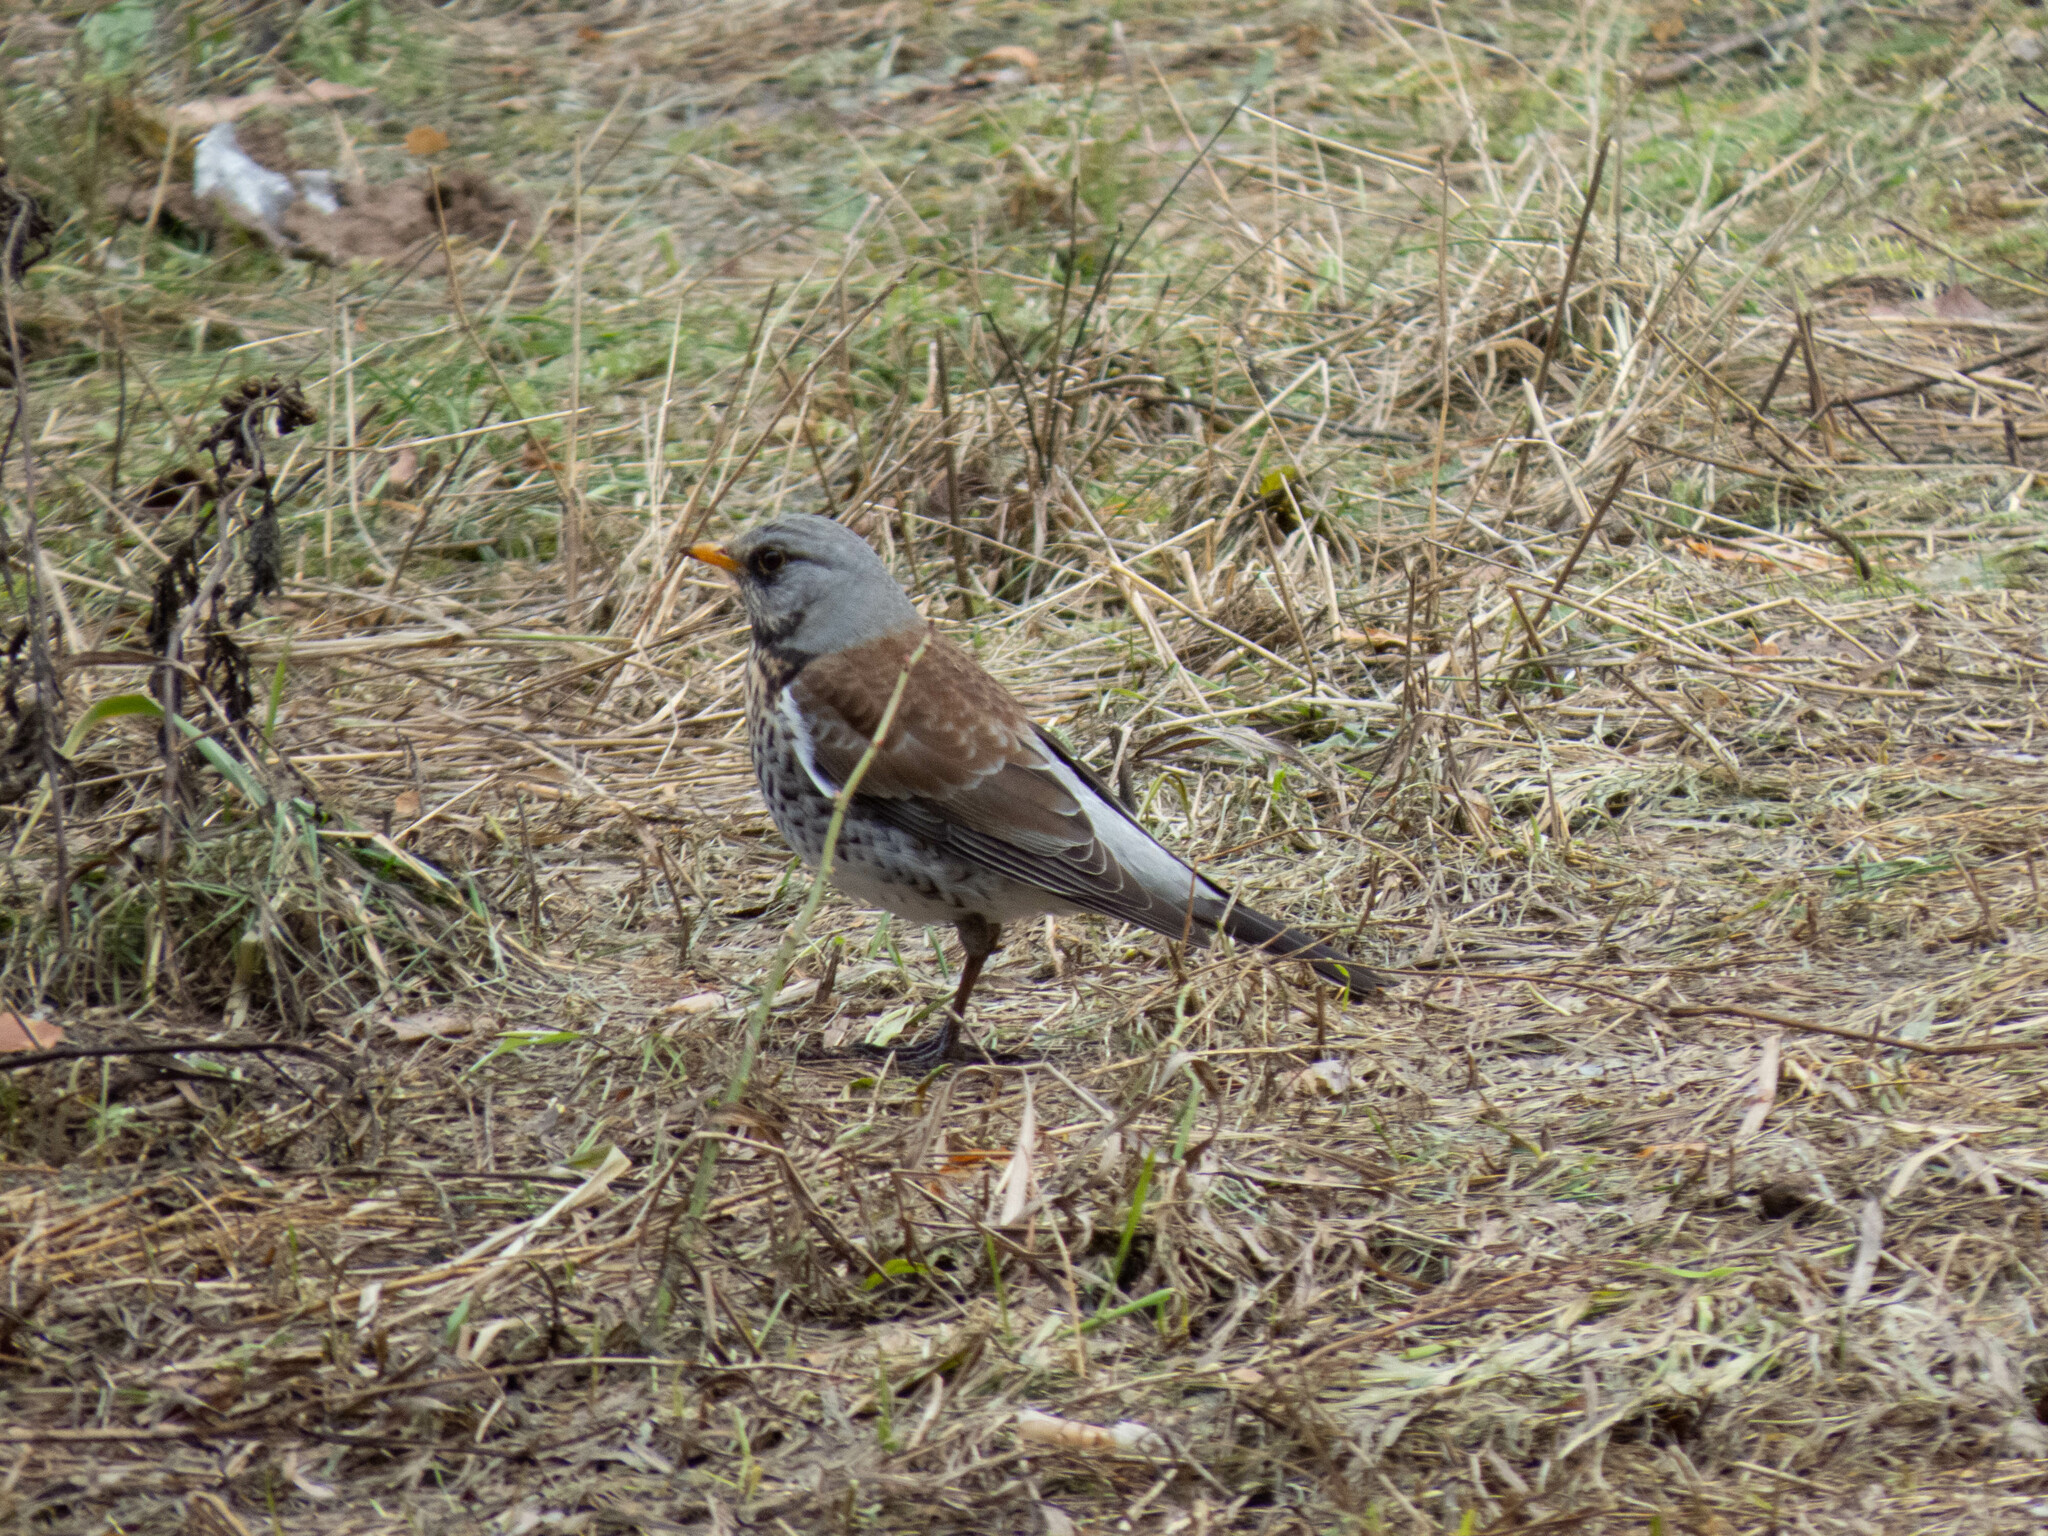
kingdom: Animalia
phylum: Chordata
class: Aves
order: Passeriformes
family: Turdidae
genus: Turdus
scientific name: Turdus pilaris
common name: Fieldfare
